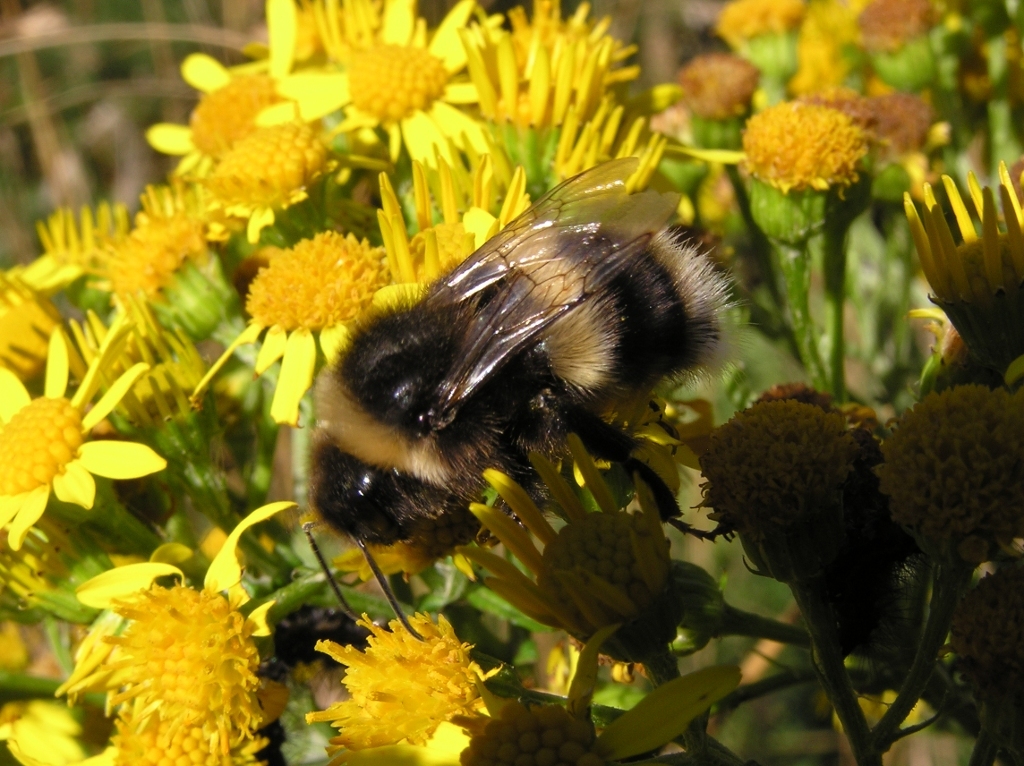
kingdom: Animalia
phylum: Arthropoda
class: Insecta
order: Hymenoptera
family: Apidae
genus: Bombus
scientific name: Bombus terrestris
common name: Buff-tailed bumblebee
